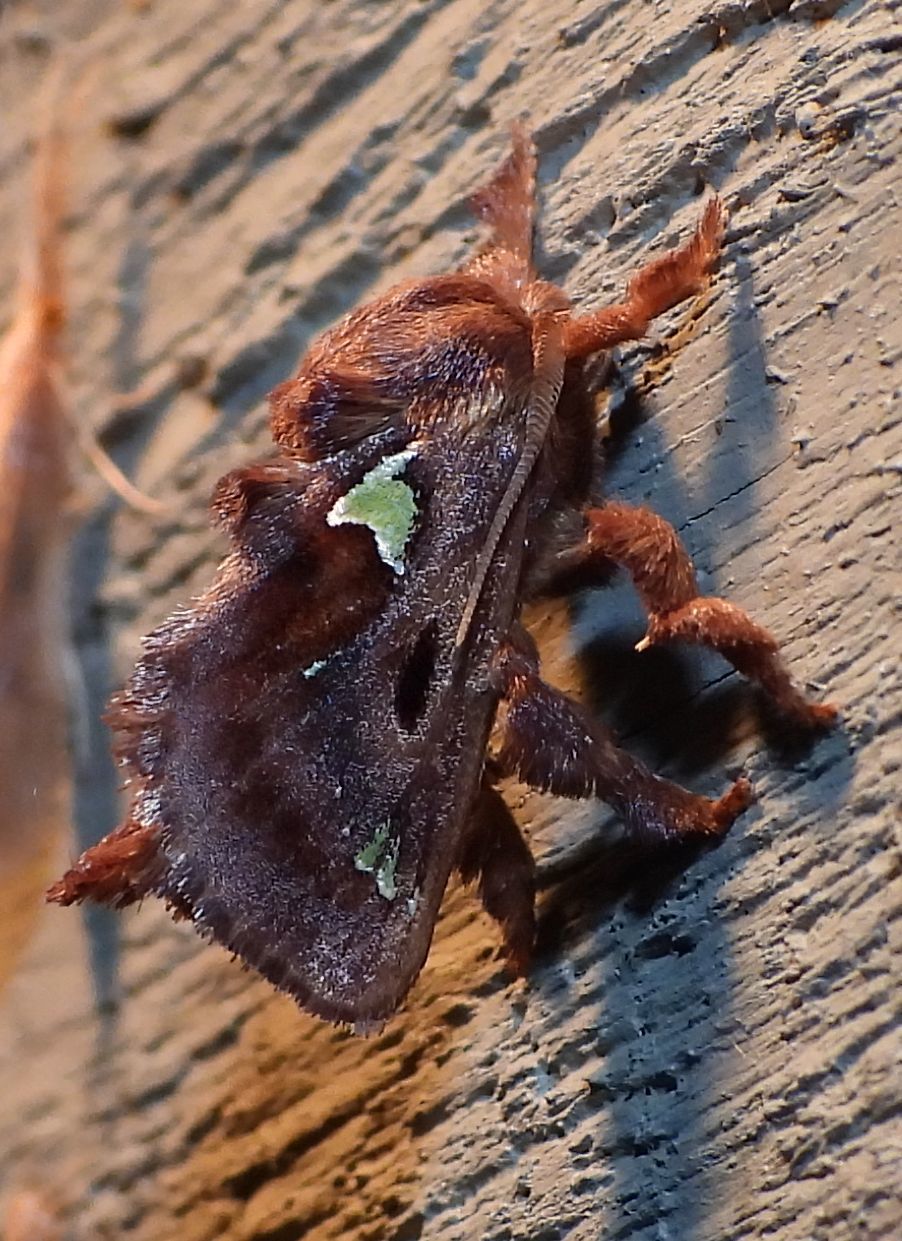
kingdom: Animalia
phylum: Arthropoda
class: Insecta
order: Lepidoptera
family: Limacodidae
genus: Euclea
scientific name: Euclea delphinii
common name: Spiny oak-slug moth
